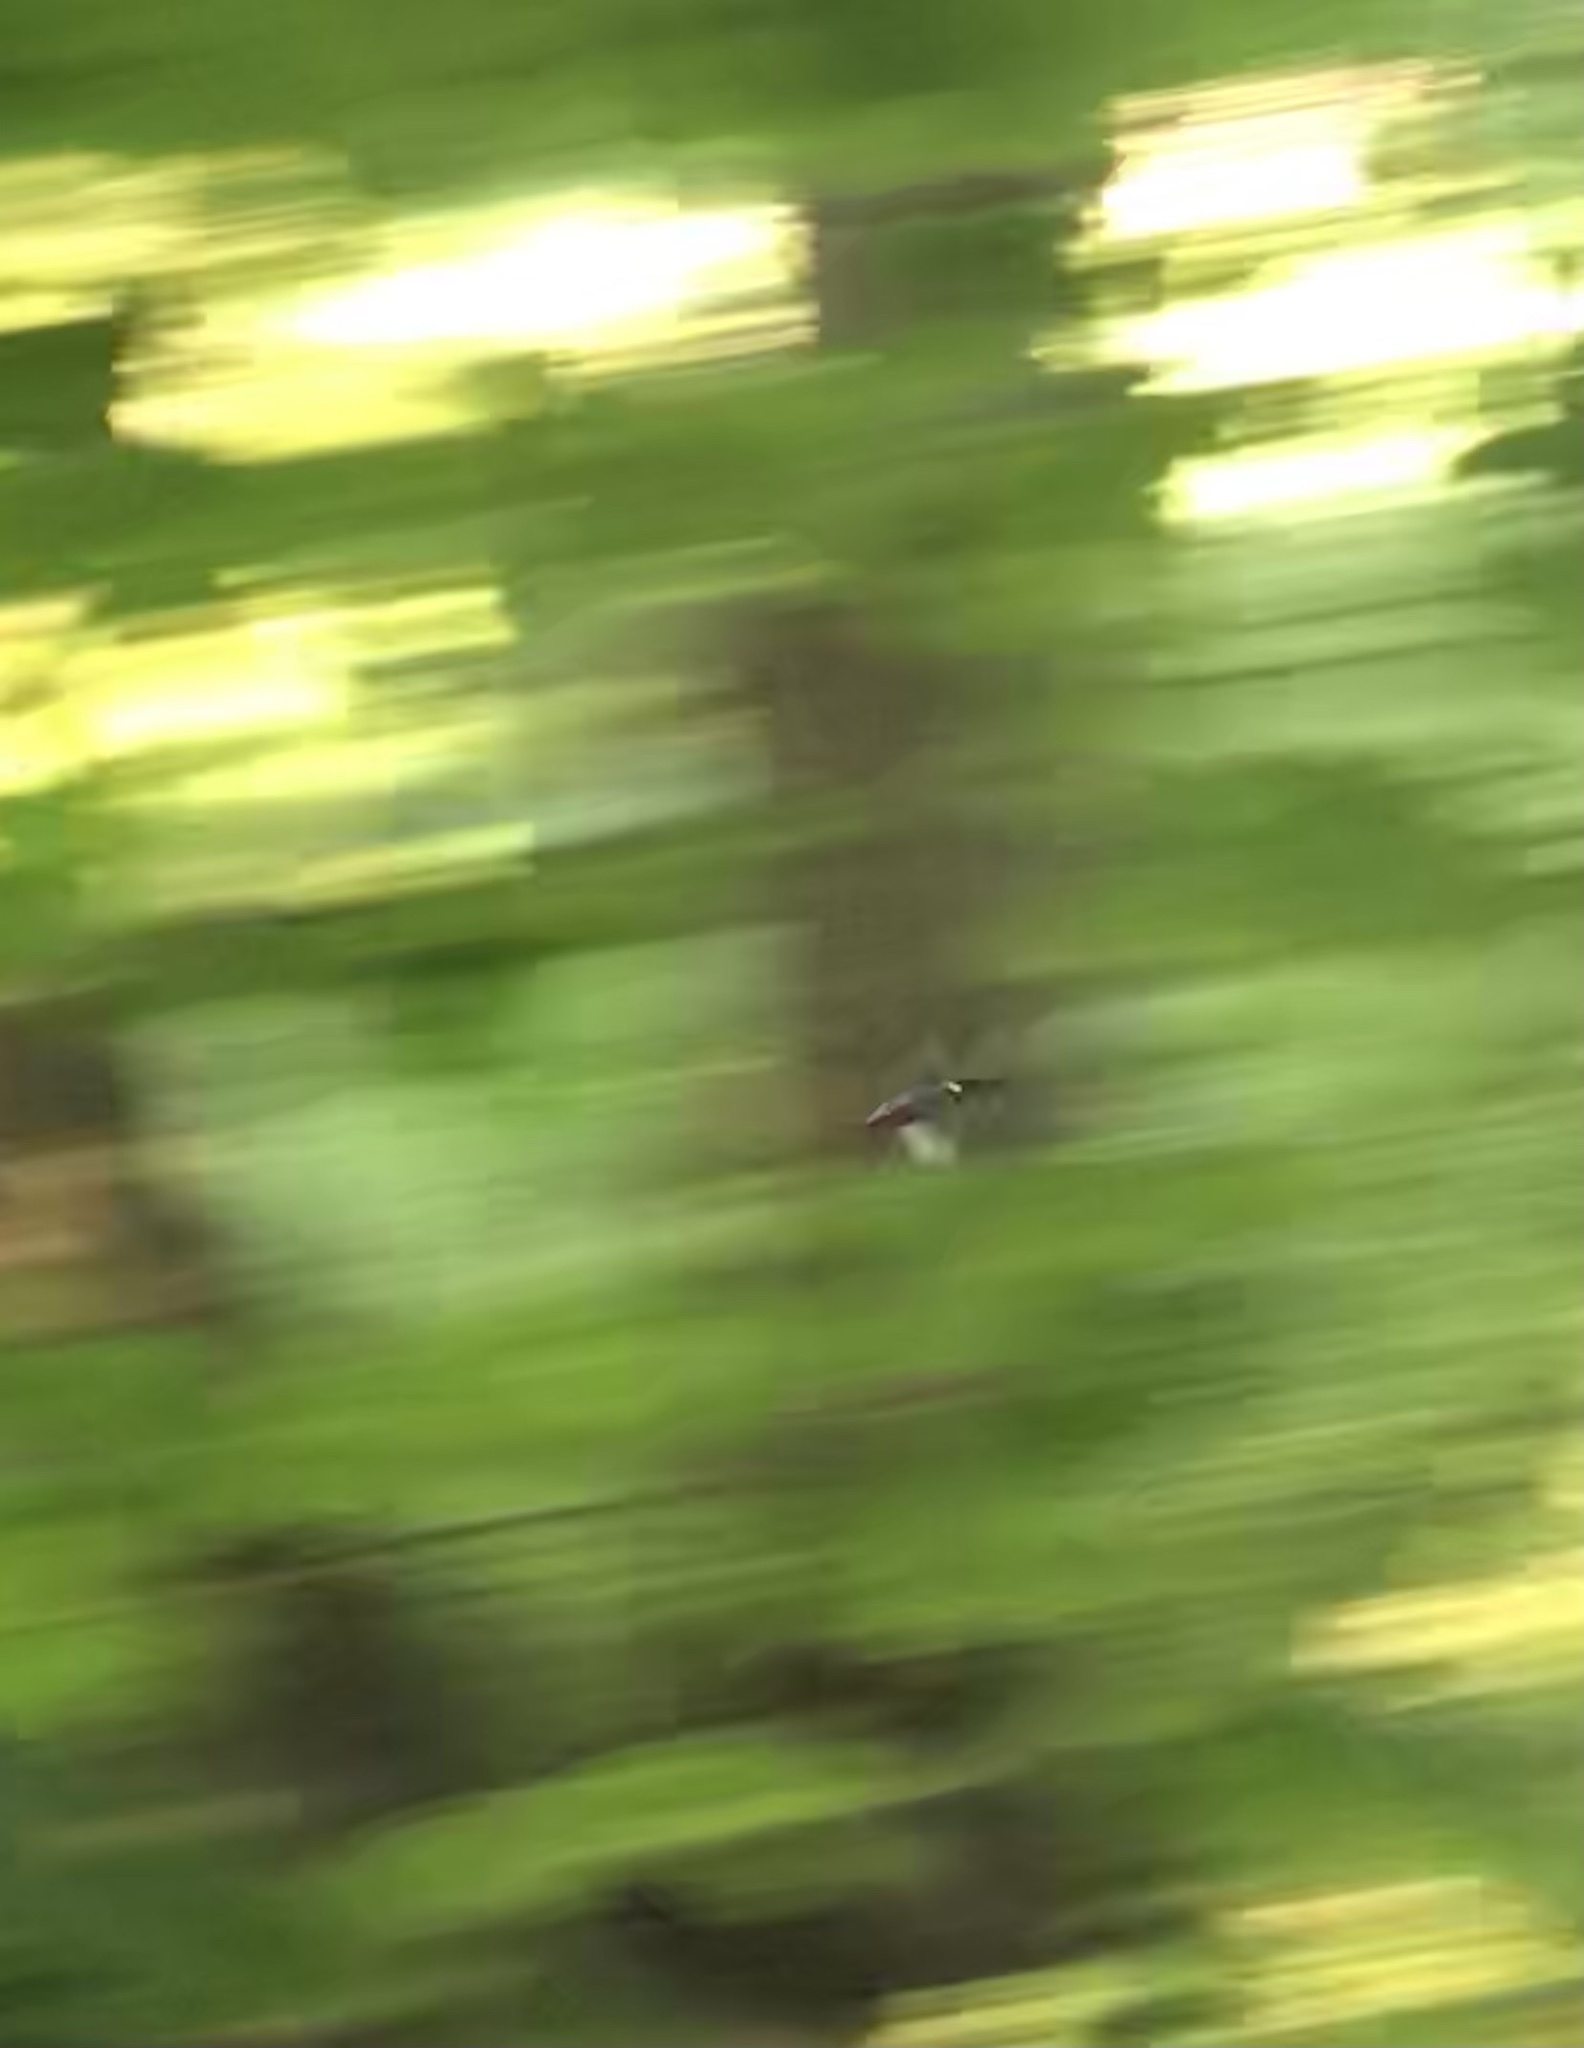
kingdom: Animalia
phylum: Chordata
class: Aves
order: Coraciiformes
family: Alcedinidae
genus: Alcedo
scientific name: Alcedo atthis
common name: Common kingfisher
